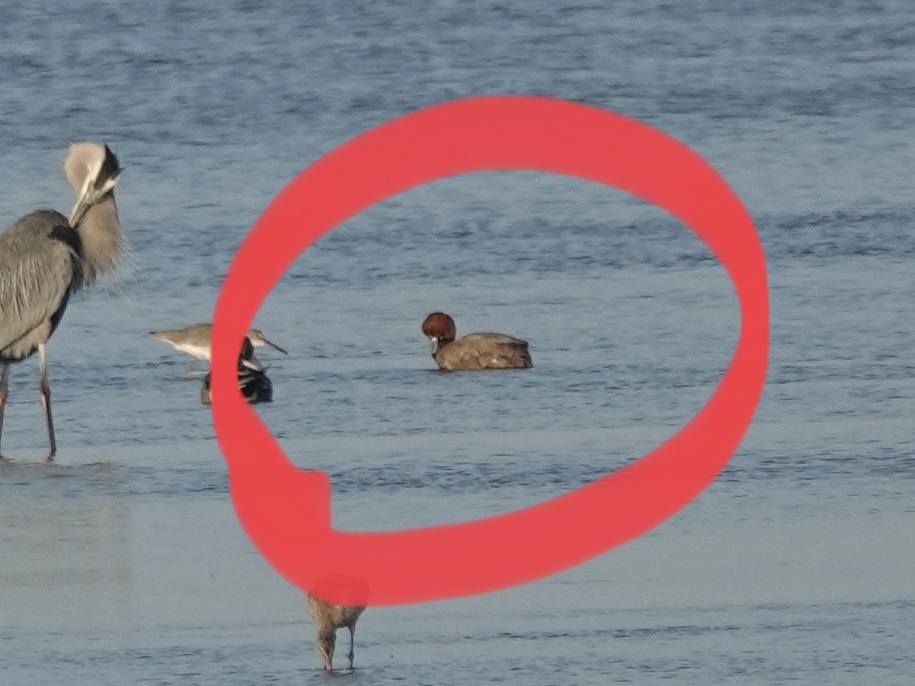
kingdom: Animalia
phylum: Chordata
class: Aves
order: Anseriformes
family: Anatidae
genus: Aythya
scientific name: Aythya americana
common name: Redhead
